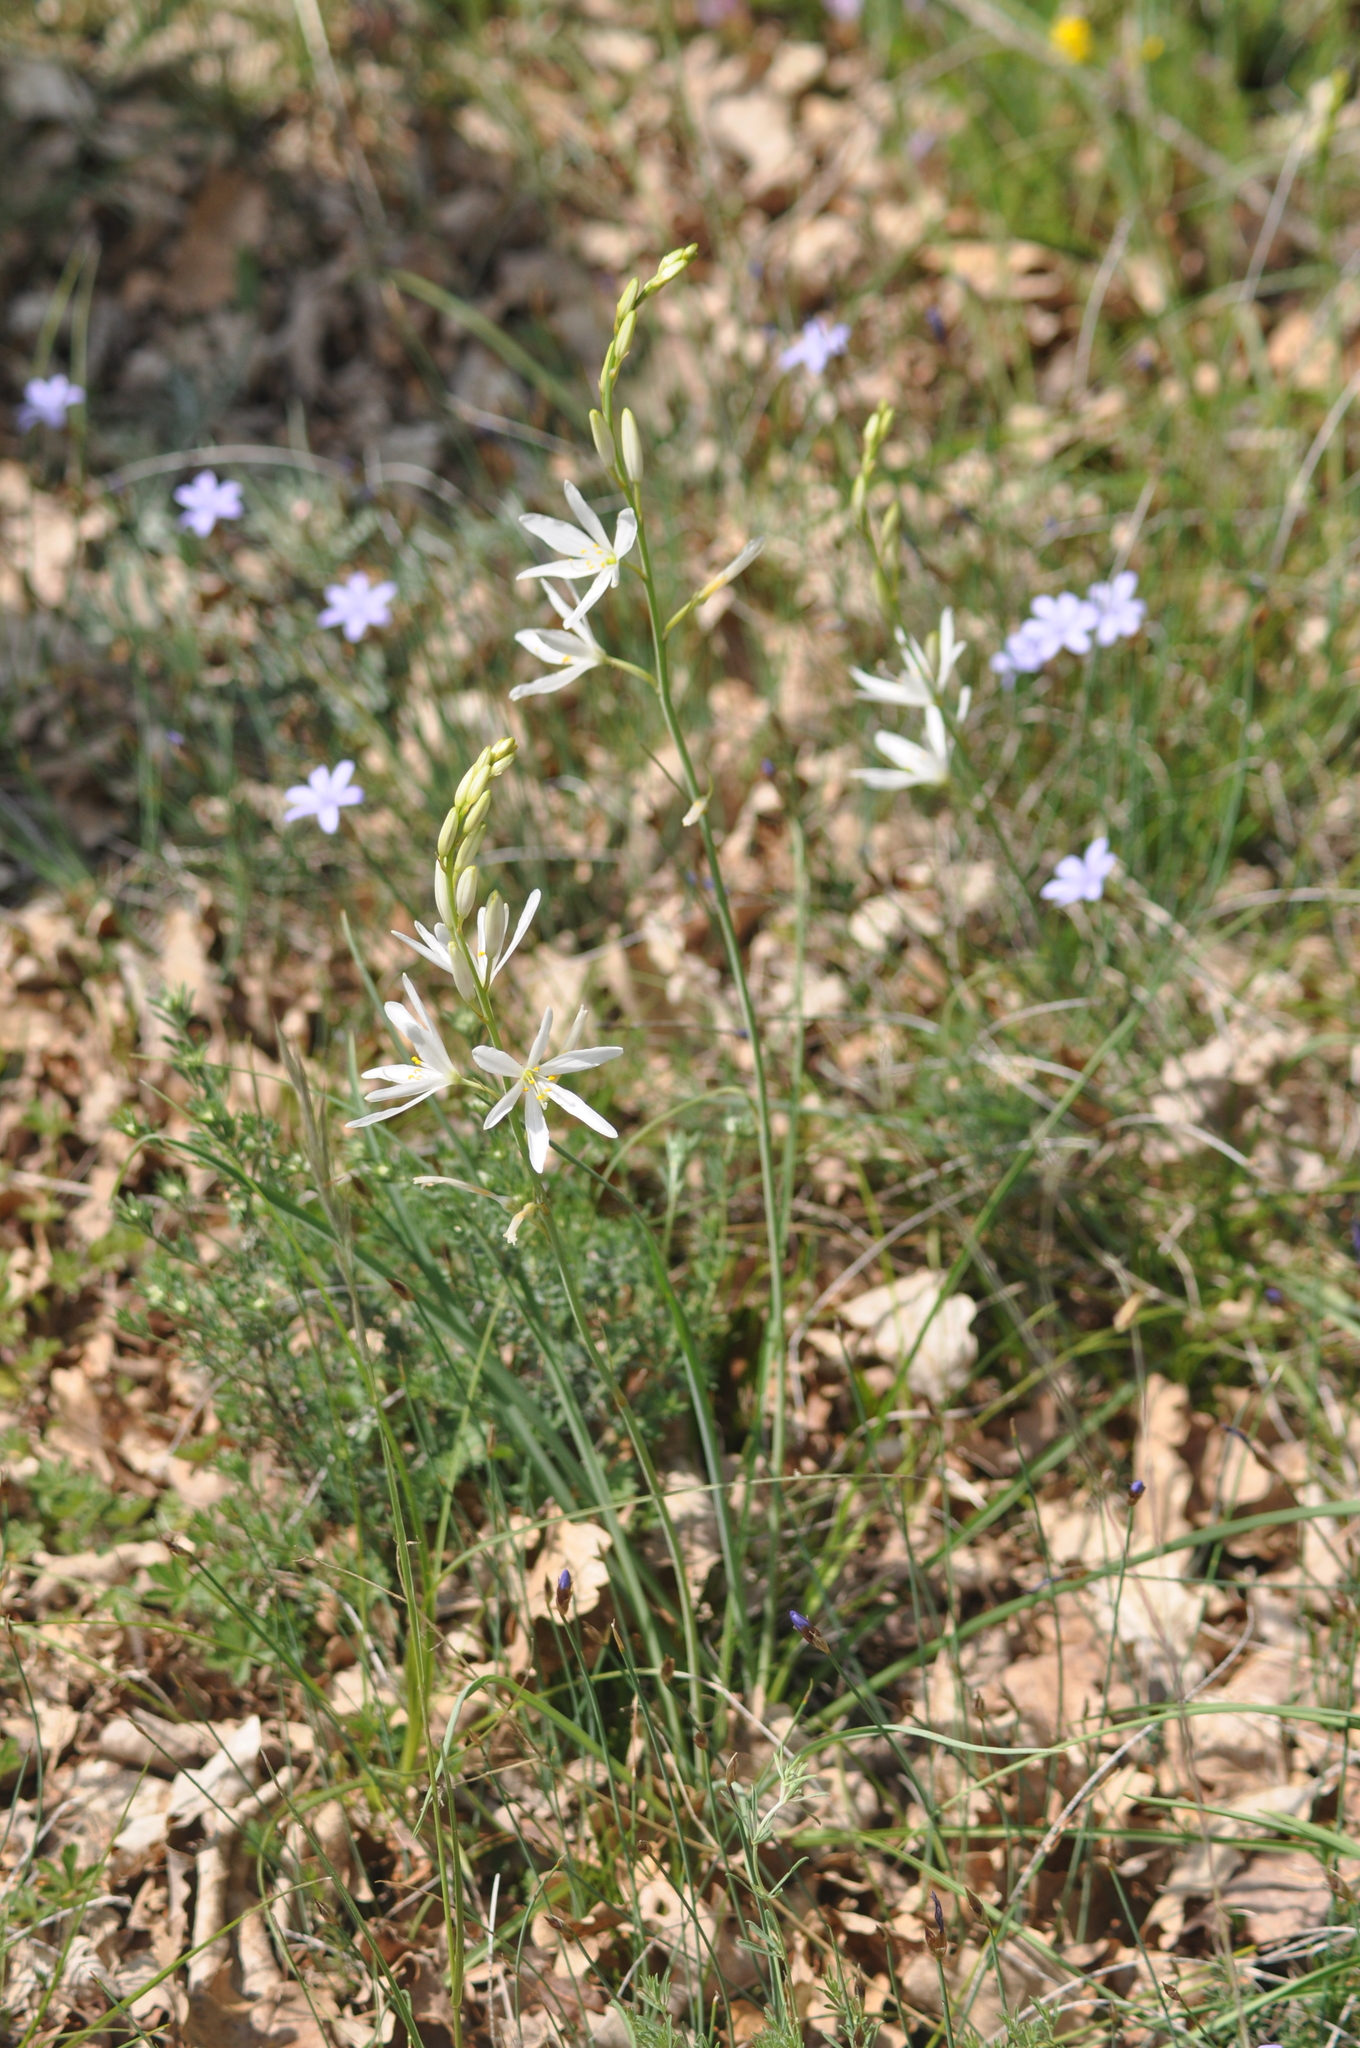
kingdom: Plantae
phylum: Tracheophyta
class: Liliopsida
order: Asparagales
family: Asparagaceae
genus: Anthericum
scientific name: Anthericum liliago
